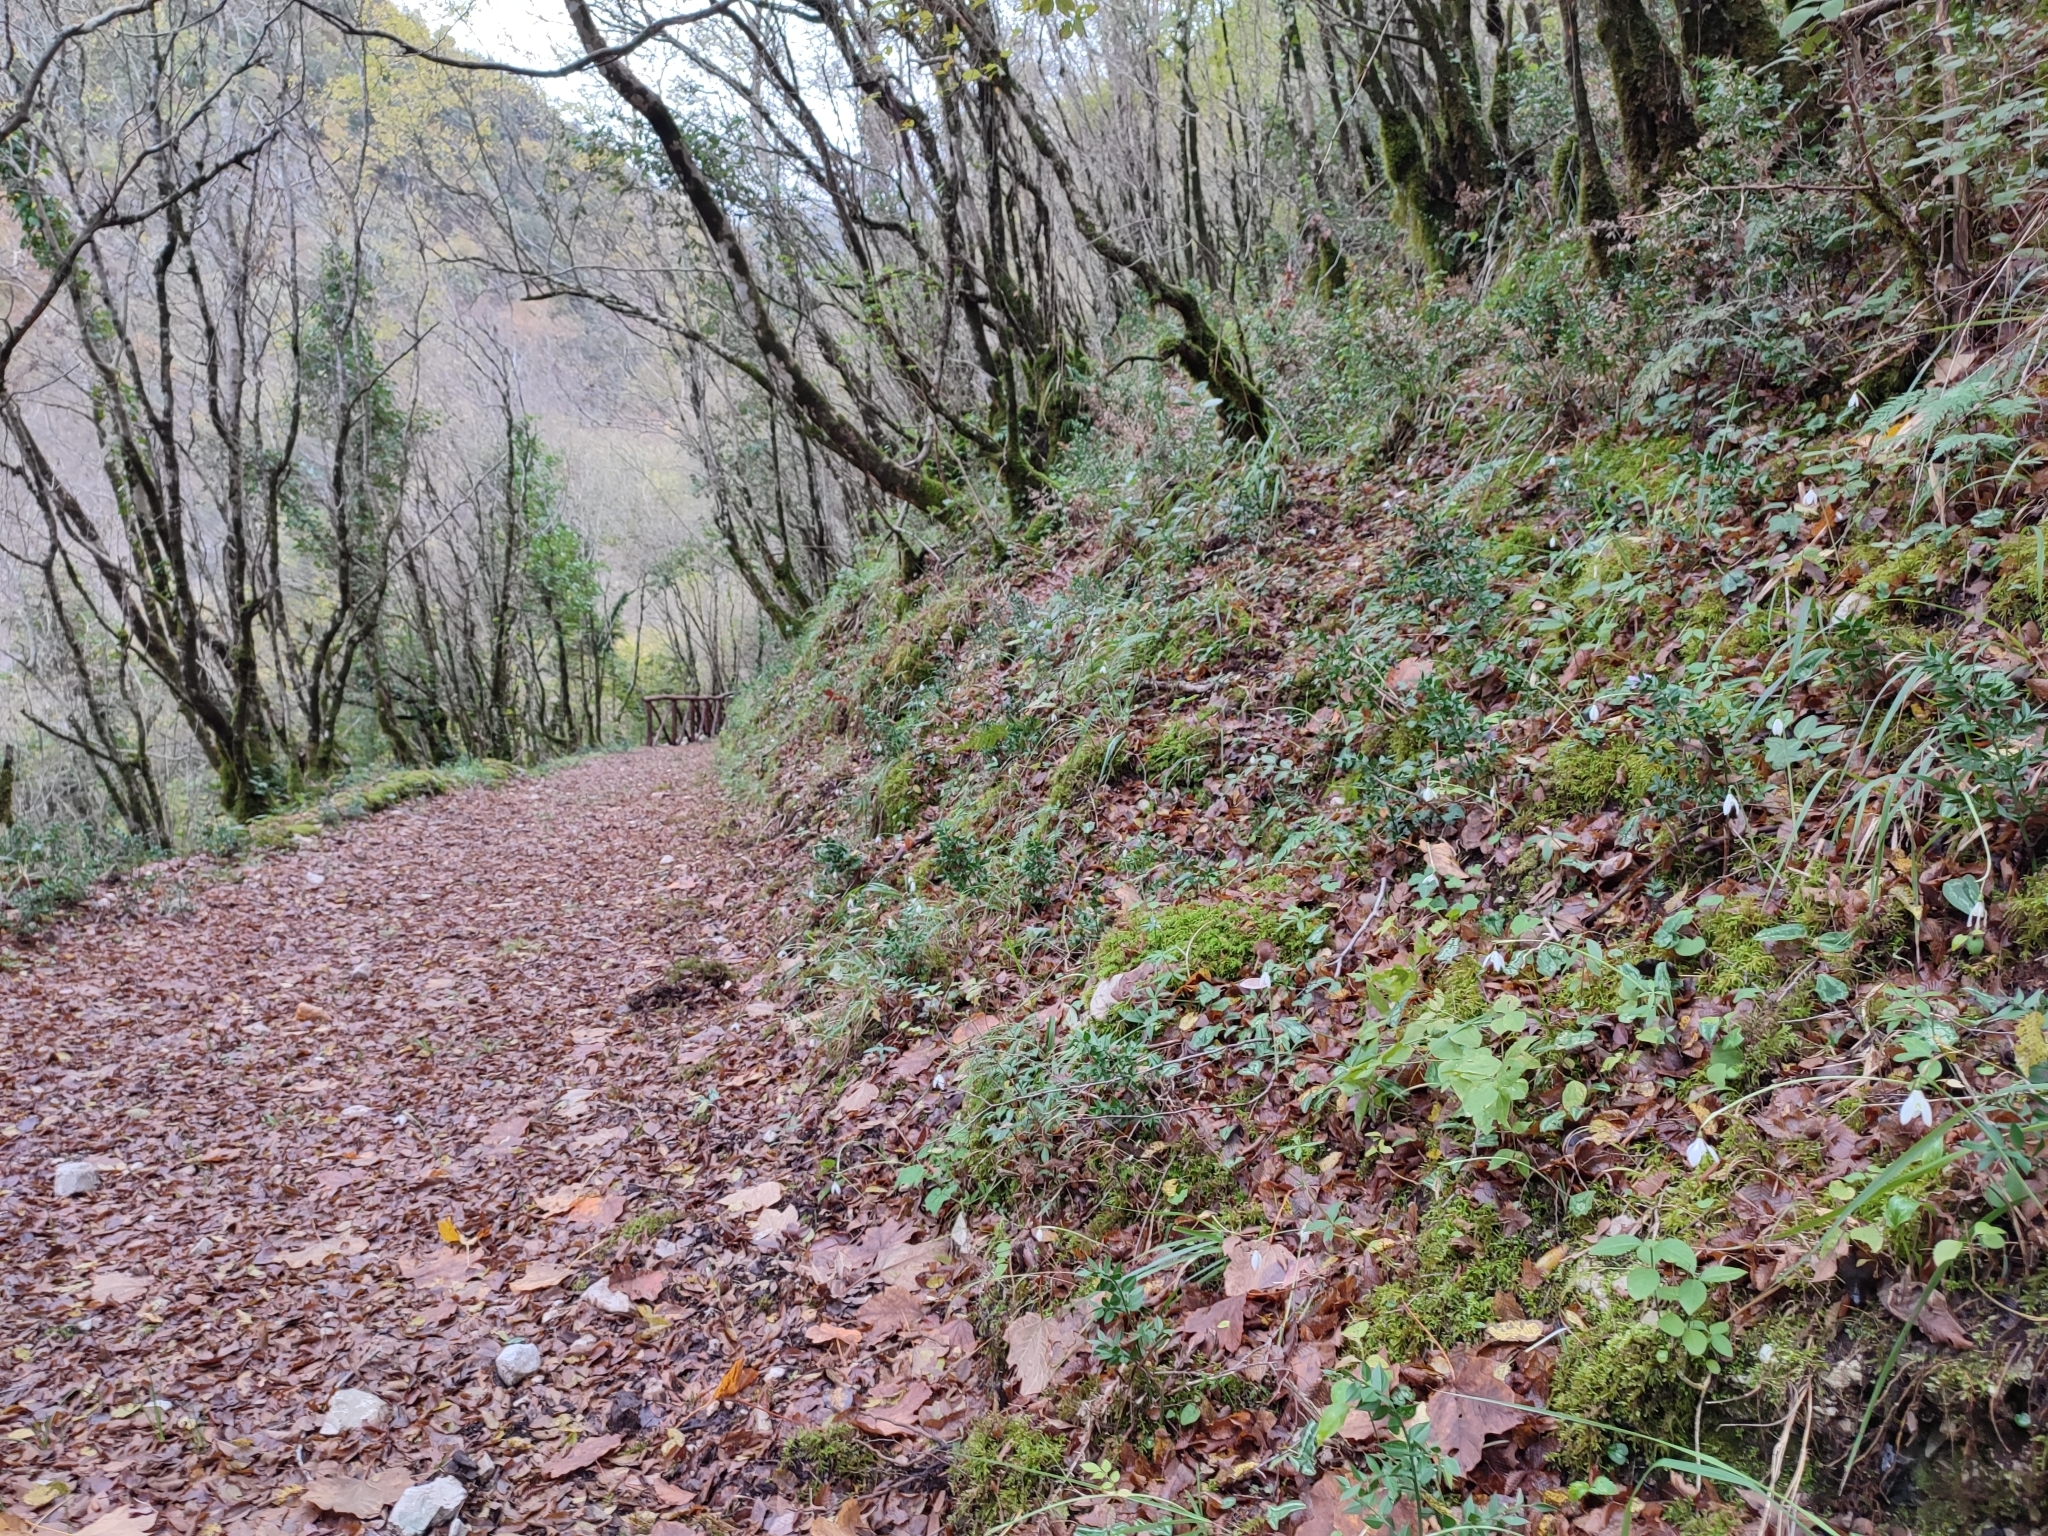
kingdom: Plantae
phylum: Tracheophyta
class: Liliopsida
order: Asparagales
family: Amaryllidaceae
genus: Galanthus
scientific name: Galanthus reginae-olgae
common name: Queen olga's snowdrop
